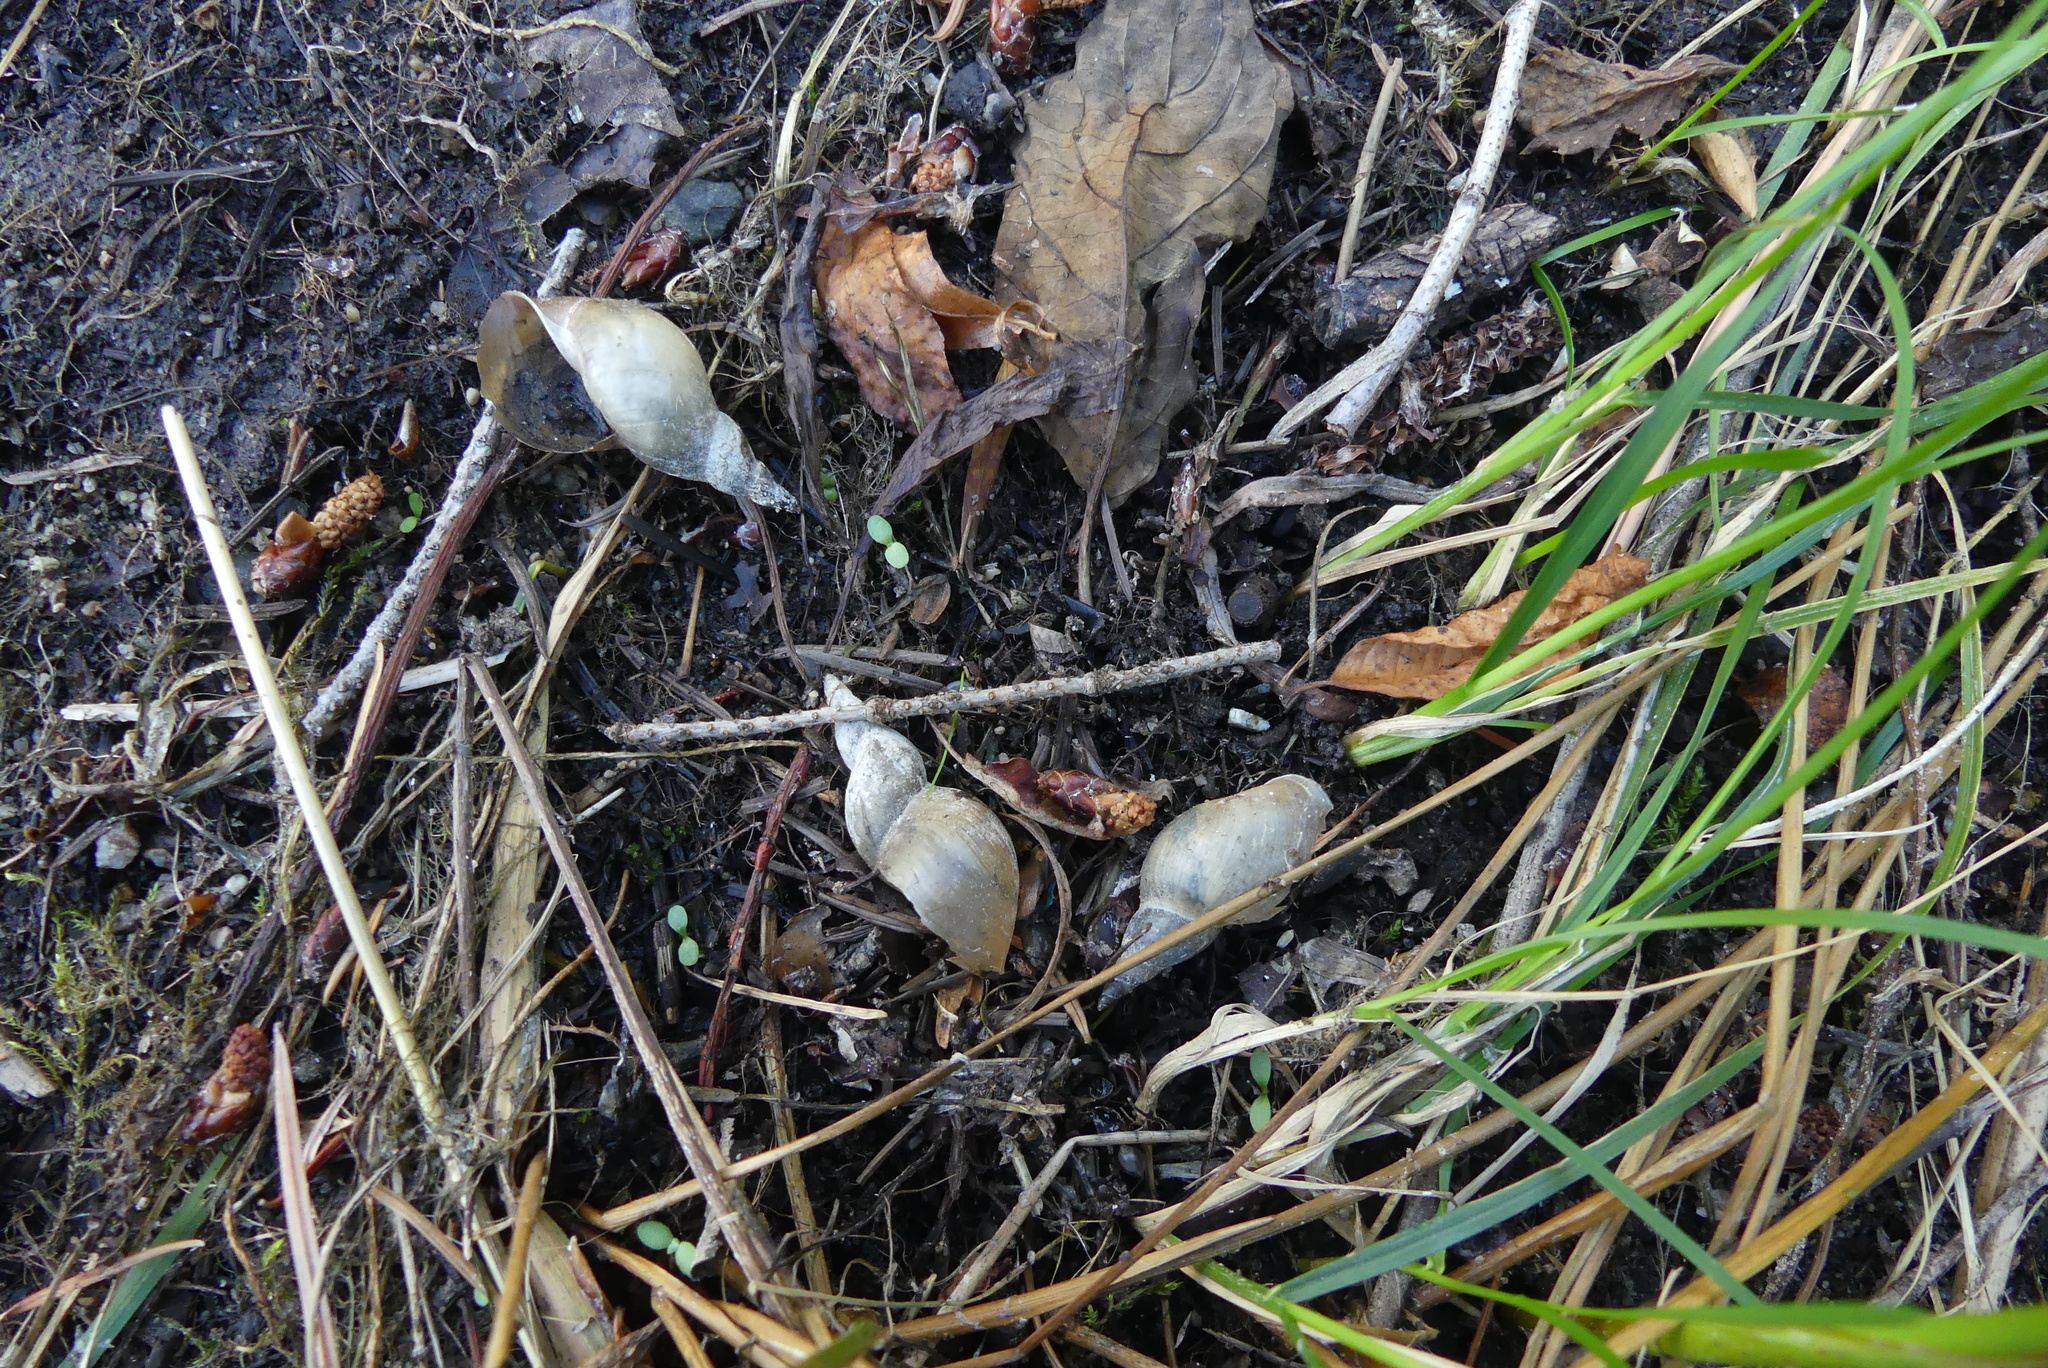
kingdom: Animalia
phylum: Mollusca
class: Gastropoda
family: Lymnaeidae
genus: Lymnaea
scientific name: Lymnaea stagnalis
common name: Great pond snail
